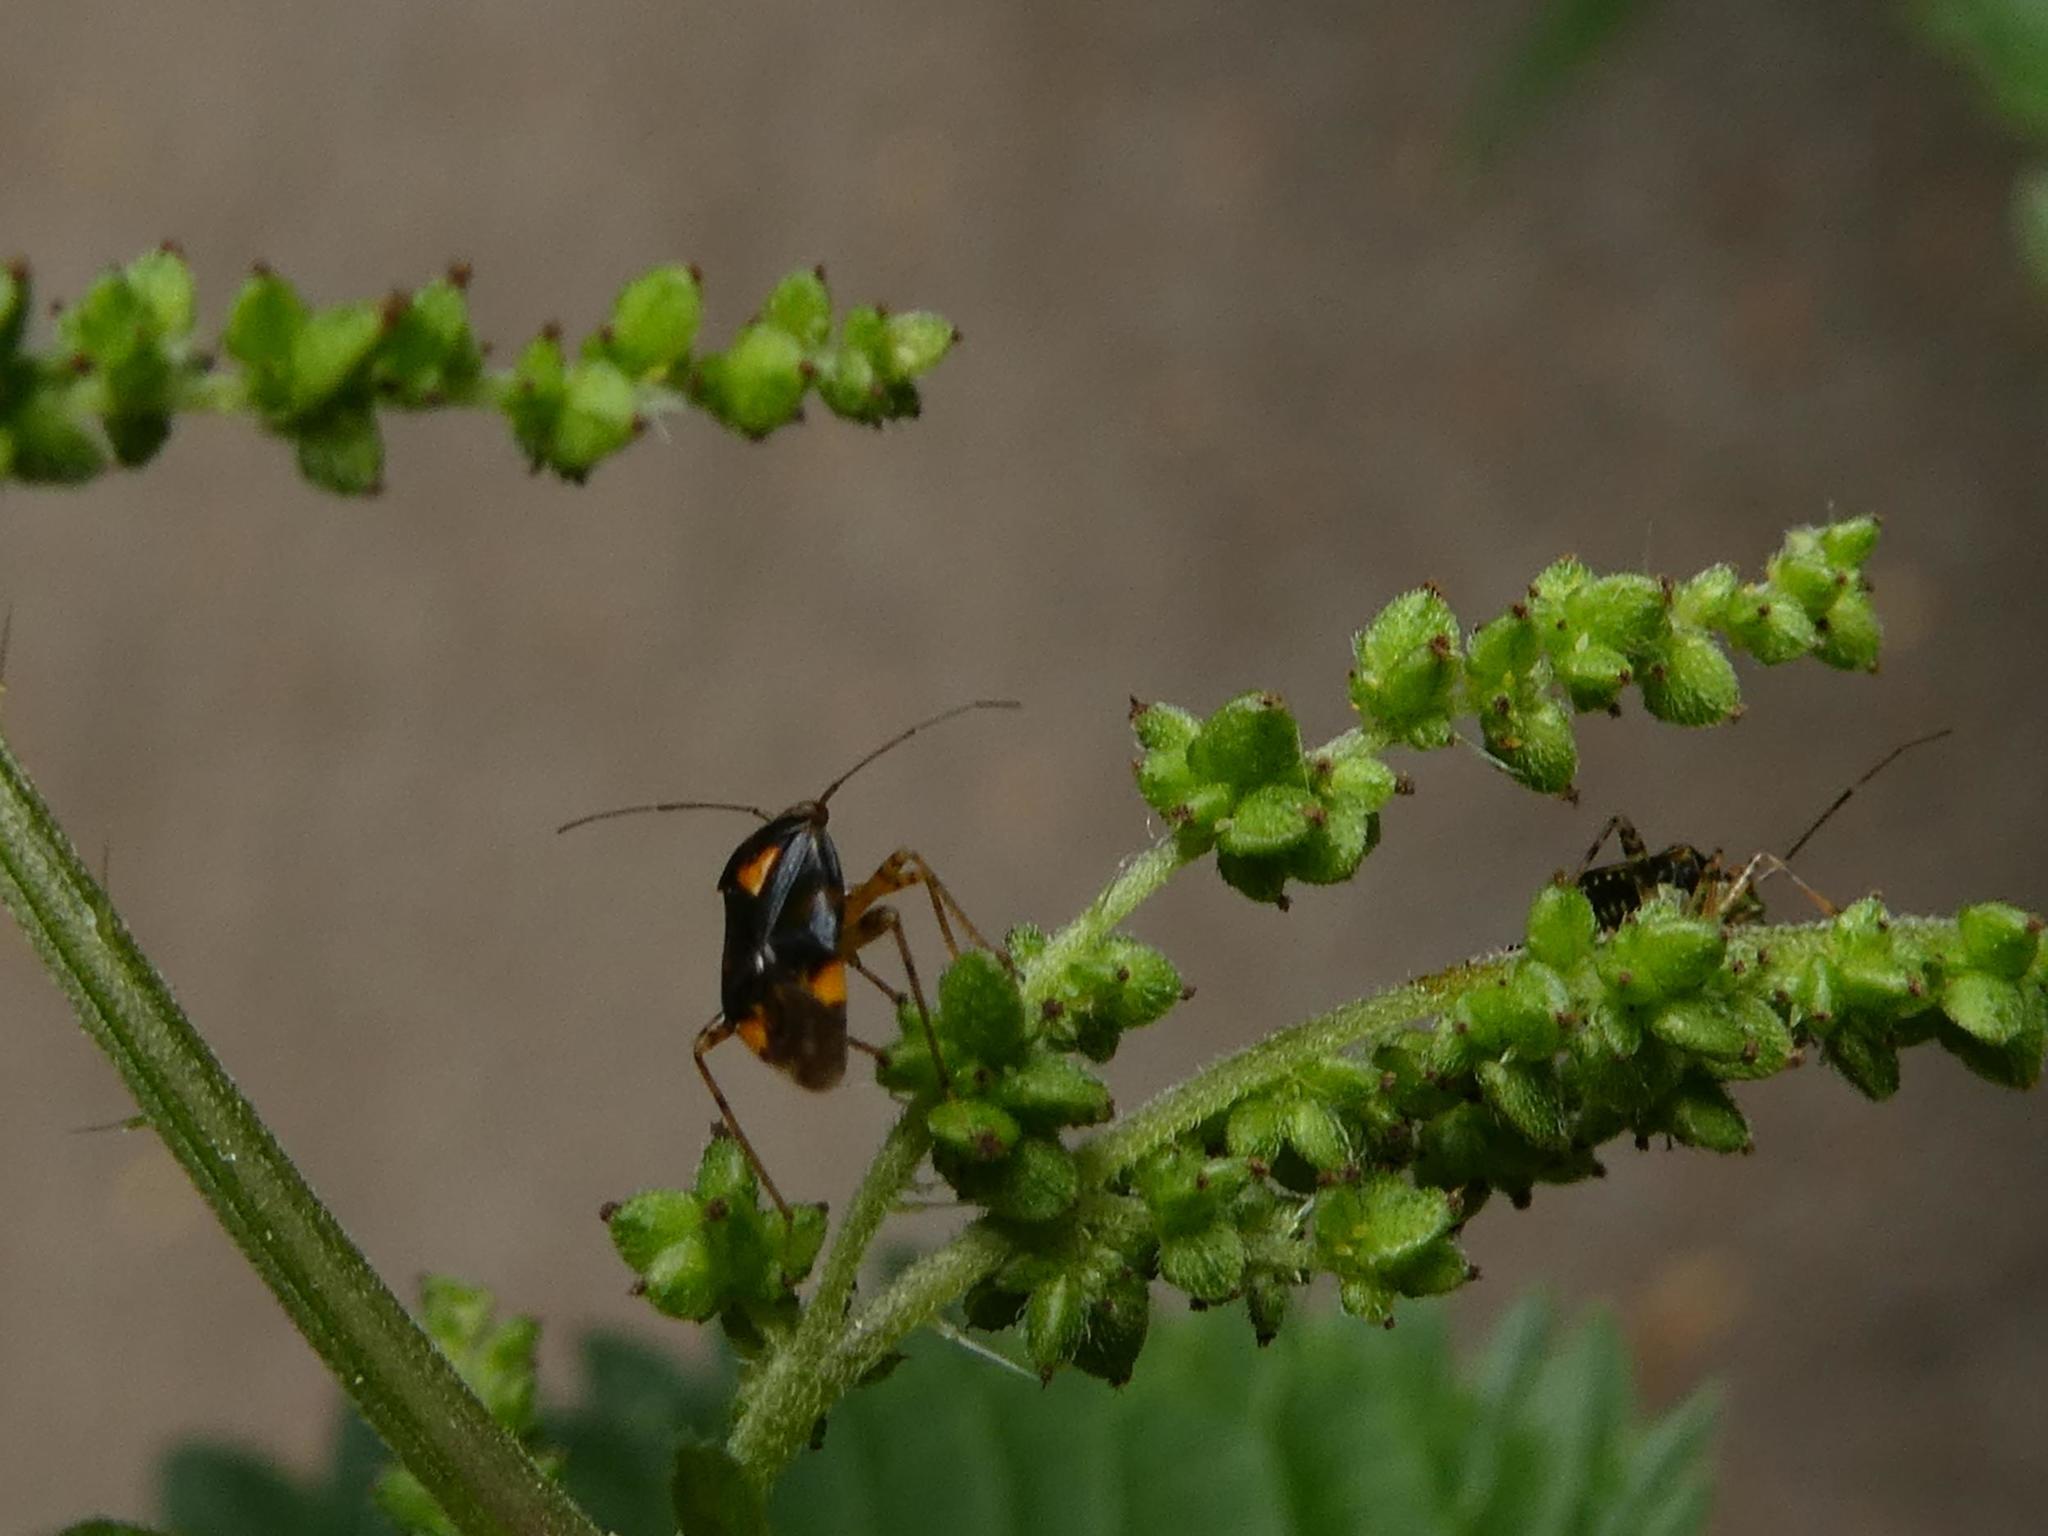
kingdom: Animalia
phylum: Arthropoda
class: Insecta
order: Hemiptera
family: Miridae
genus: Liocoris
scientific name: Liocoris tripustulatus
